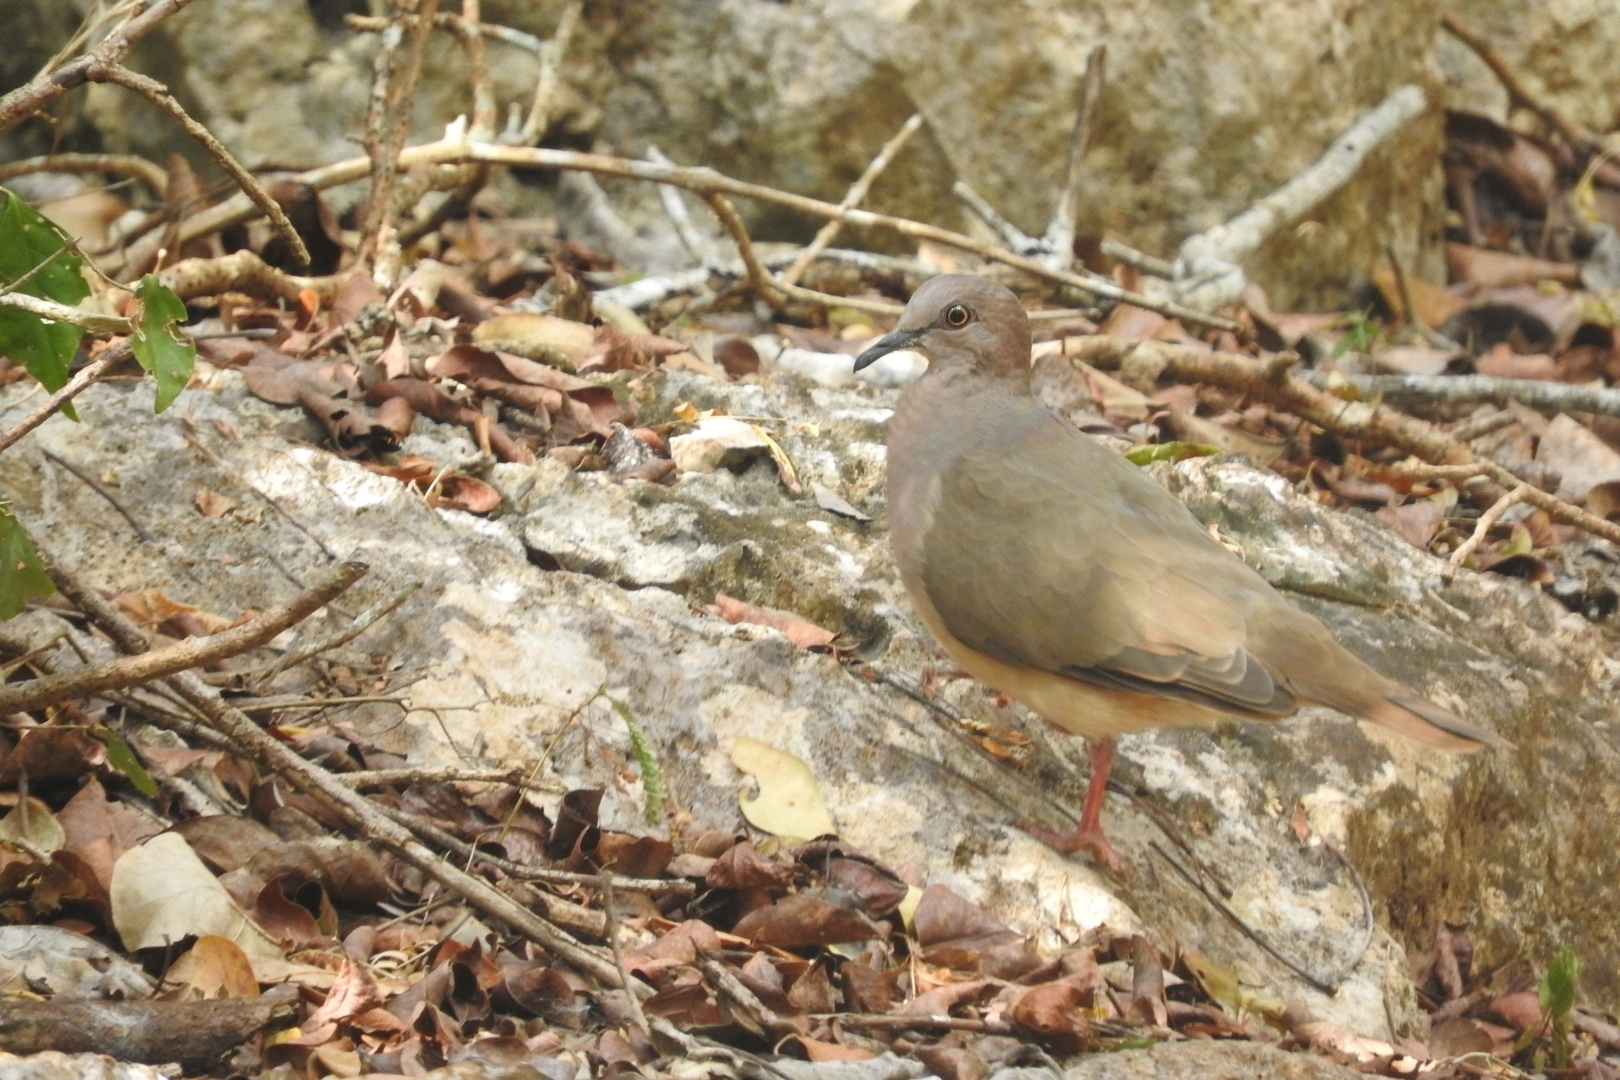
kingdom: Animalia
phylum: Chordata
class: Aves
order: Columbiformes
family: Columbidae
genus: Leptotila
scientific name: Leptotila verreauxi
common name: White-tipped dove
